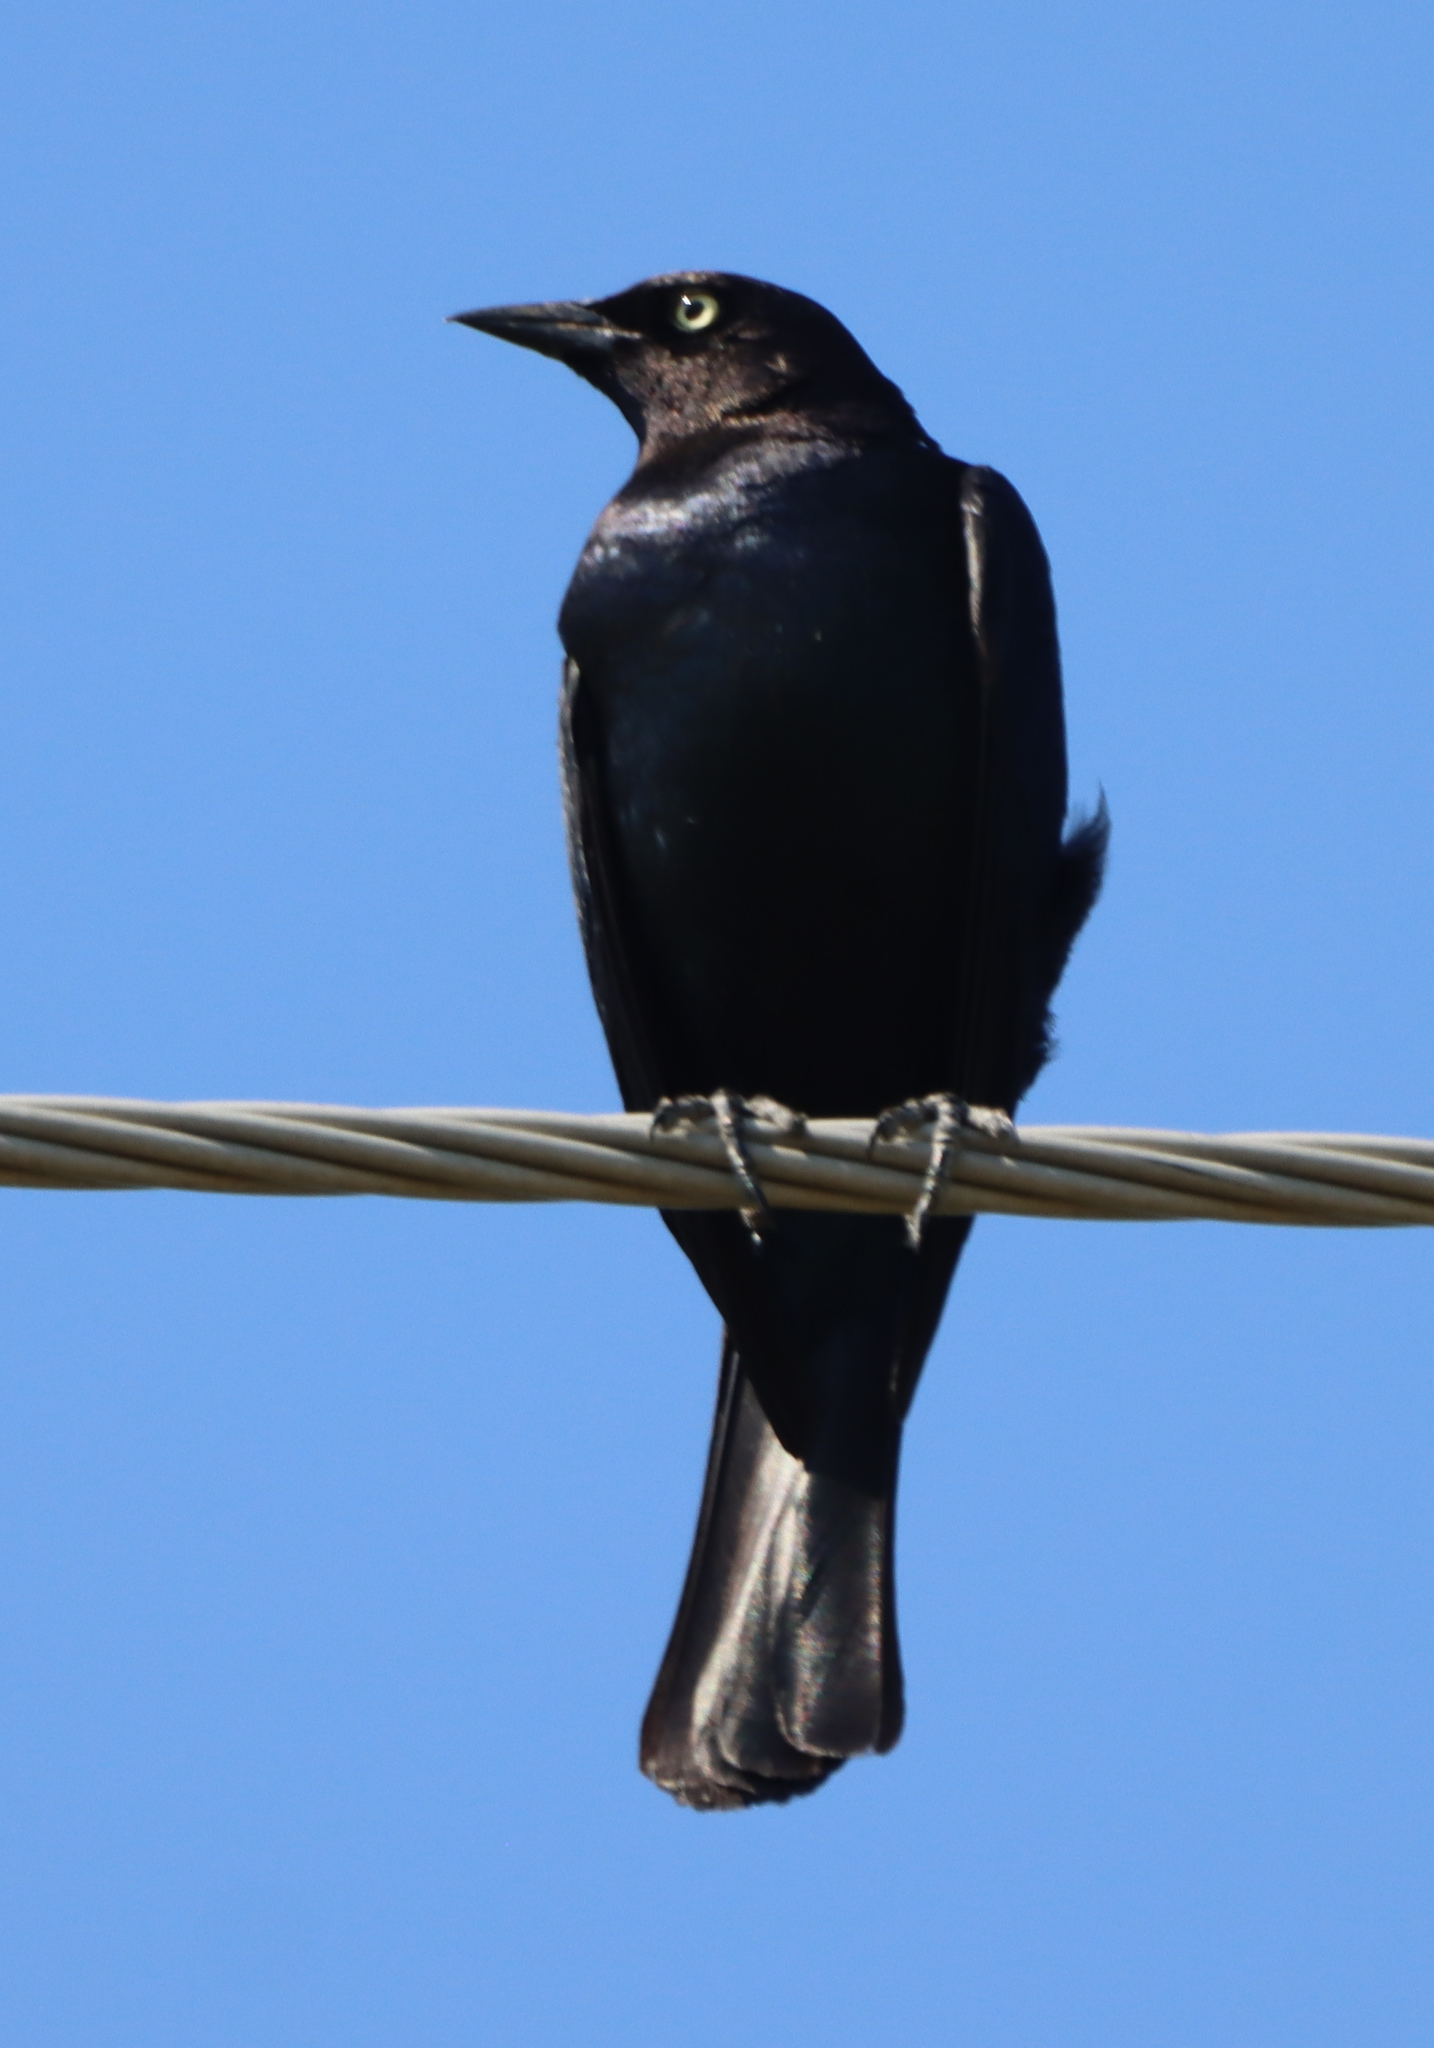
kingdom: Animalia
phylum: Chordata
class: Aves
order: Passeriformes
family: Icteridae
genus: Euphagus
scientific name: Euphagus cyanocephalus
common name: Brewer's blackbird
